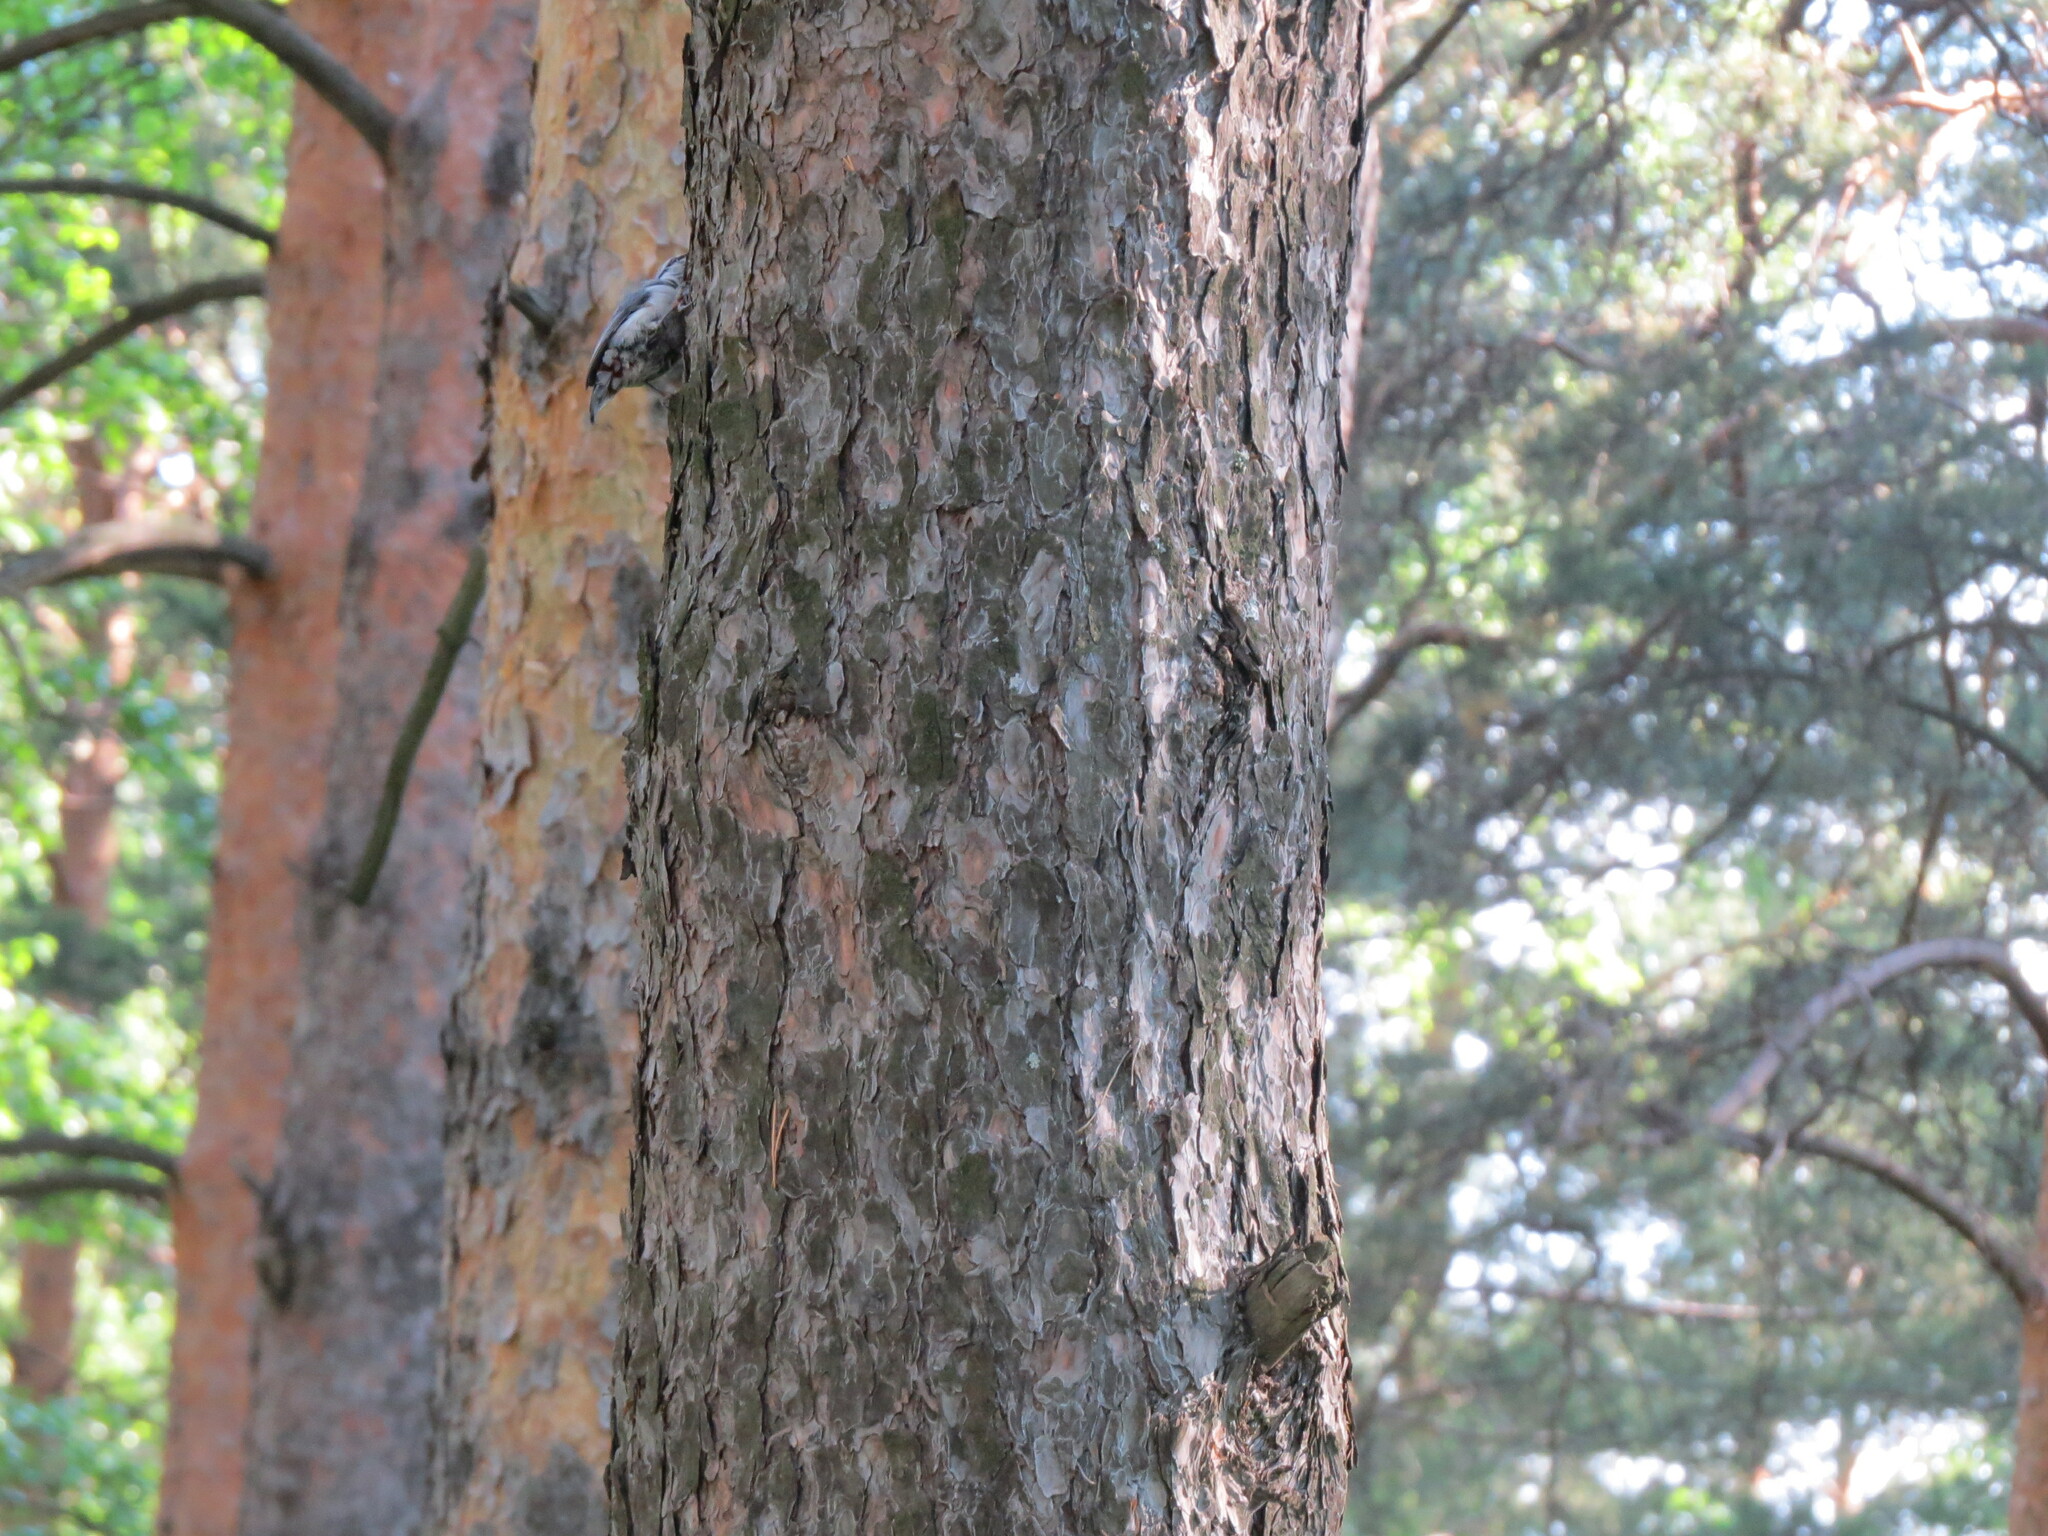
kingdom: Animalia
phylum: Chordata
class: Aves
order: Passeriformes
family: Sittidae
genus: Sitta
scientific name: Sitta europaea
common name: Eurasian nuthatch
